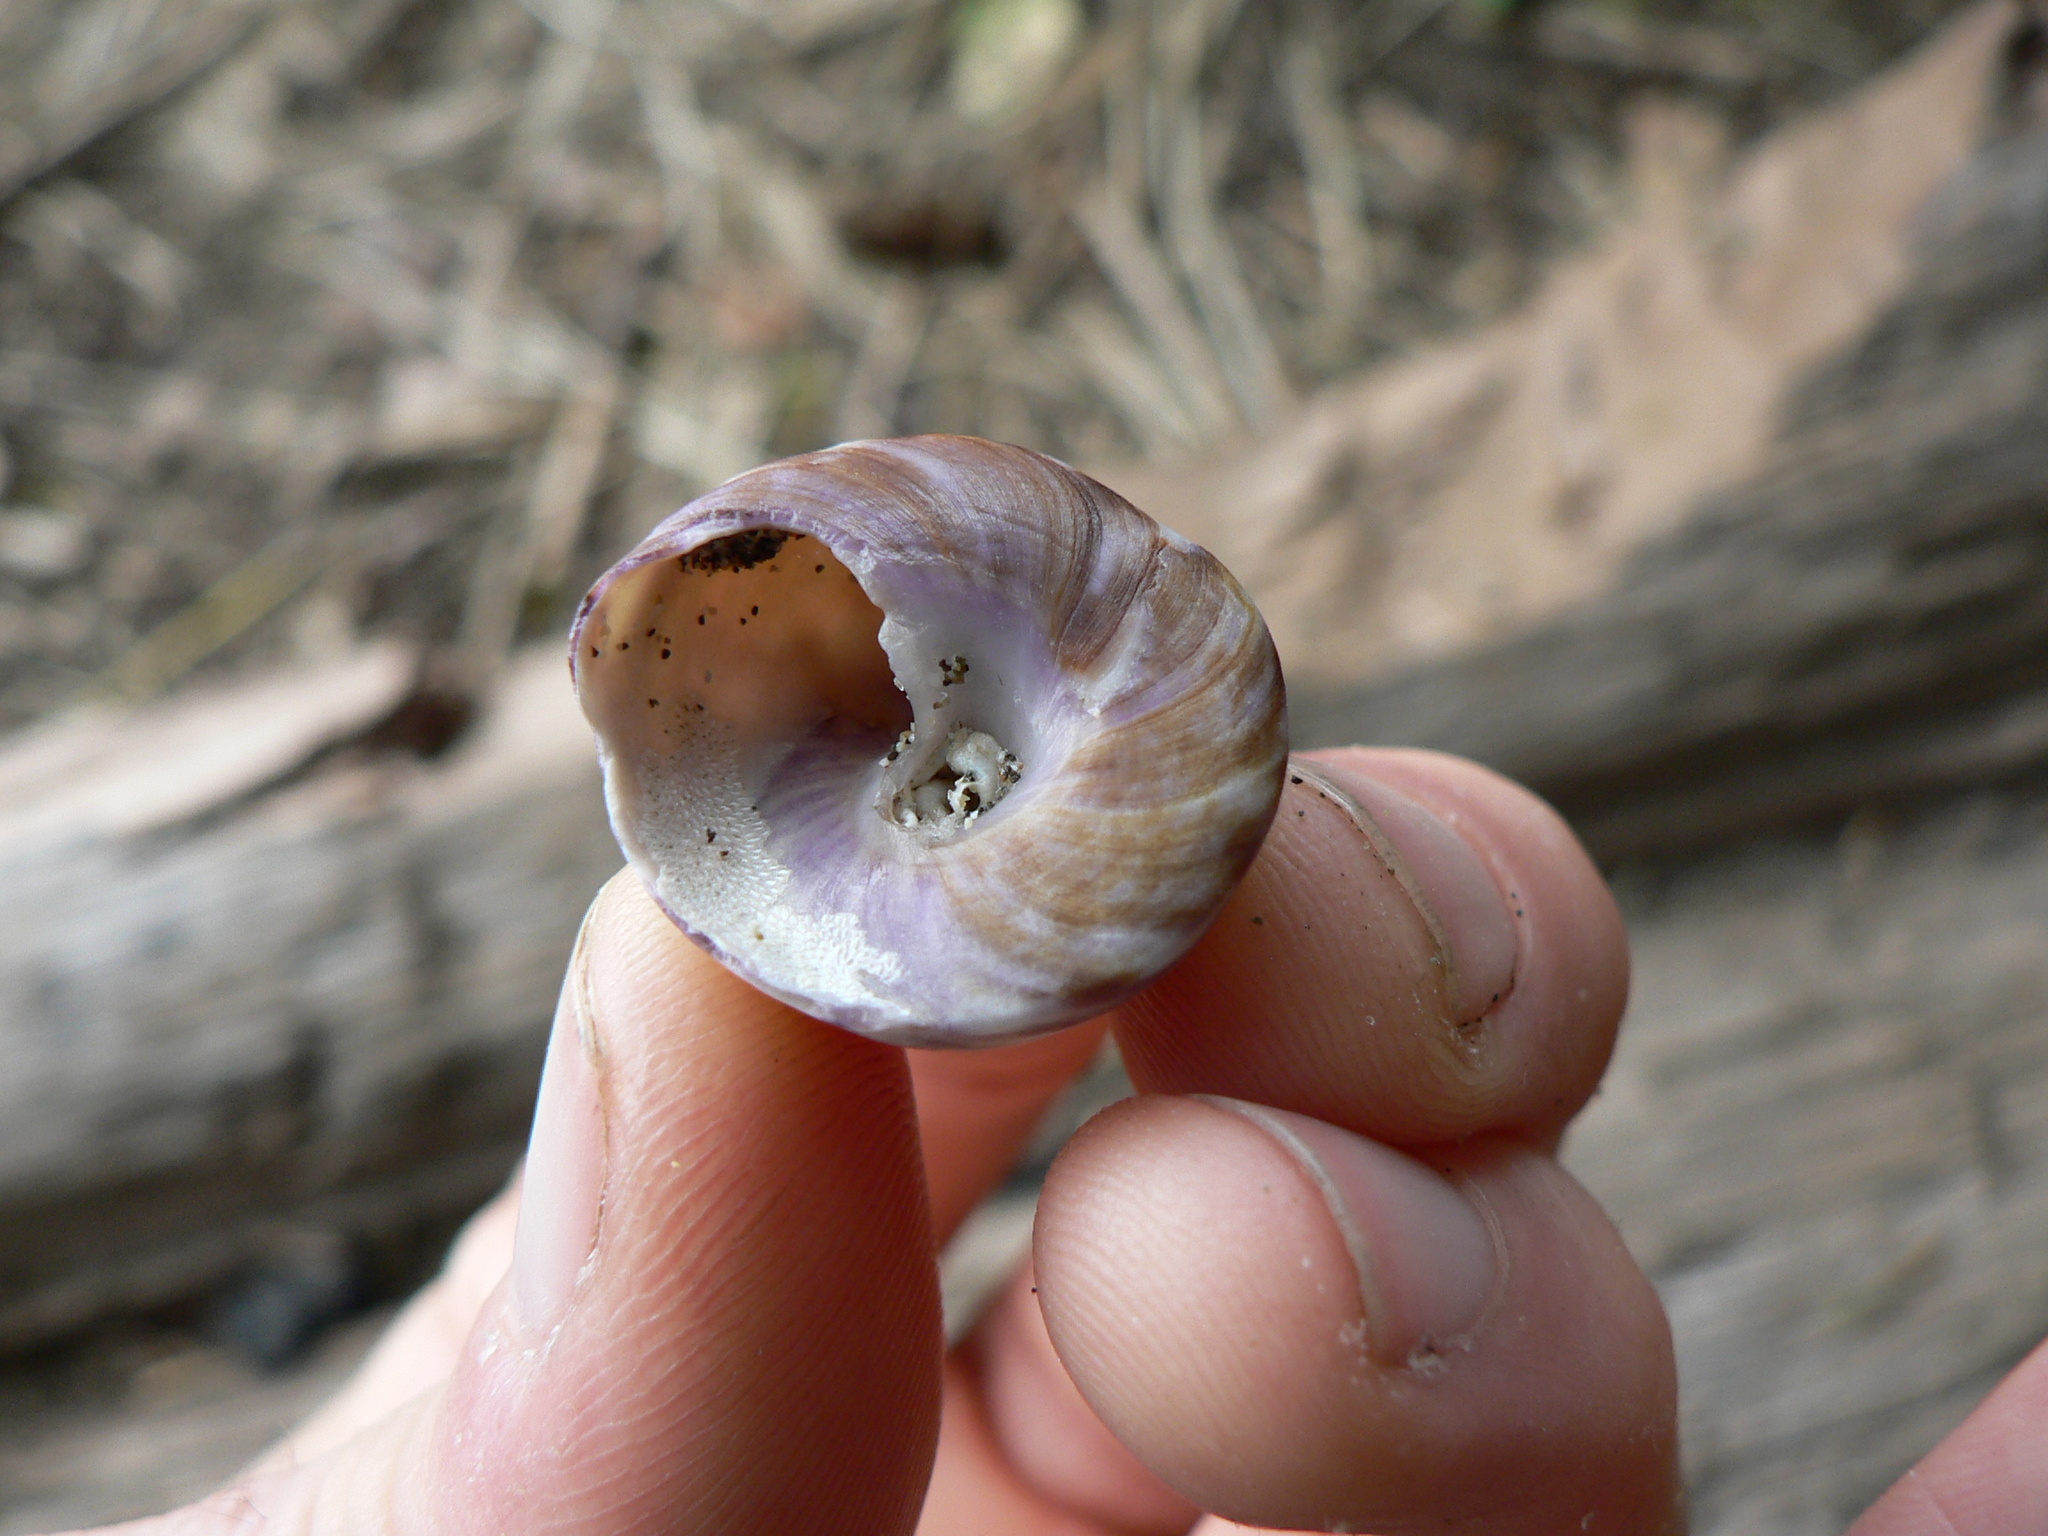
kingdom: Animalia
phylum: Mollusca
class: Gastropoda
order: Trochida
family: Tegulidae
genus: Tegula
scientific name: Tegula pulligo
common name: Brown turban
